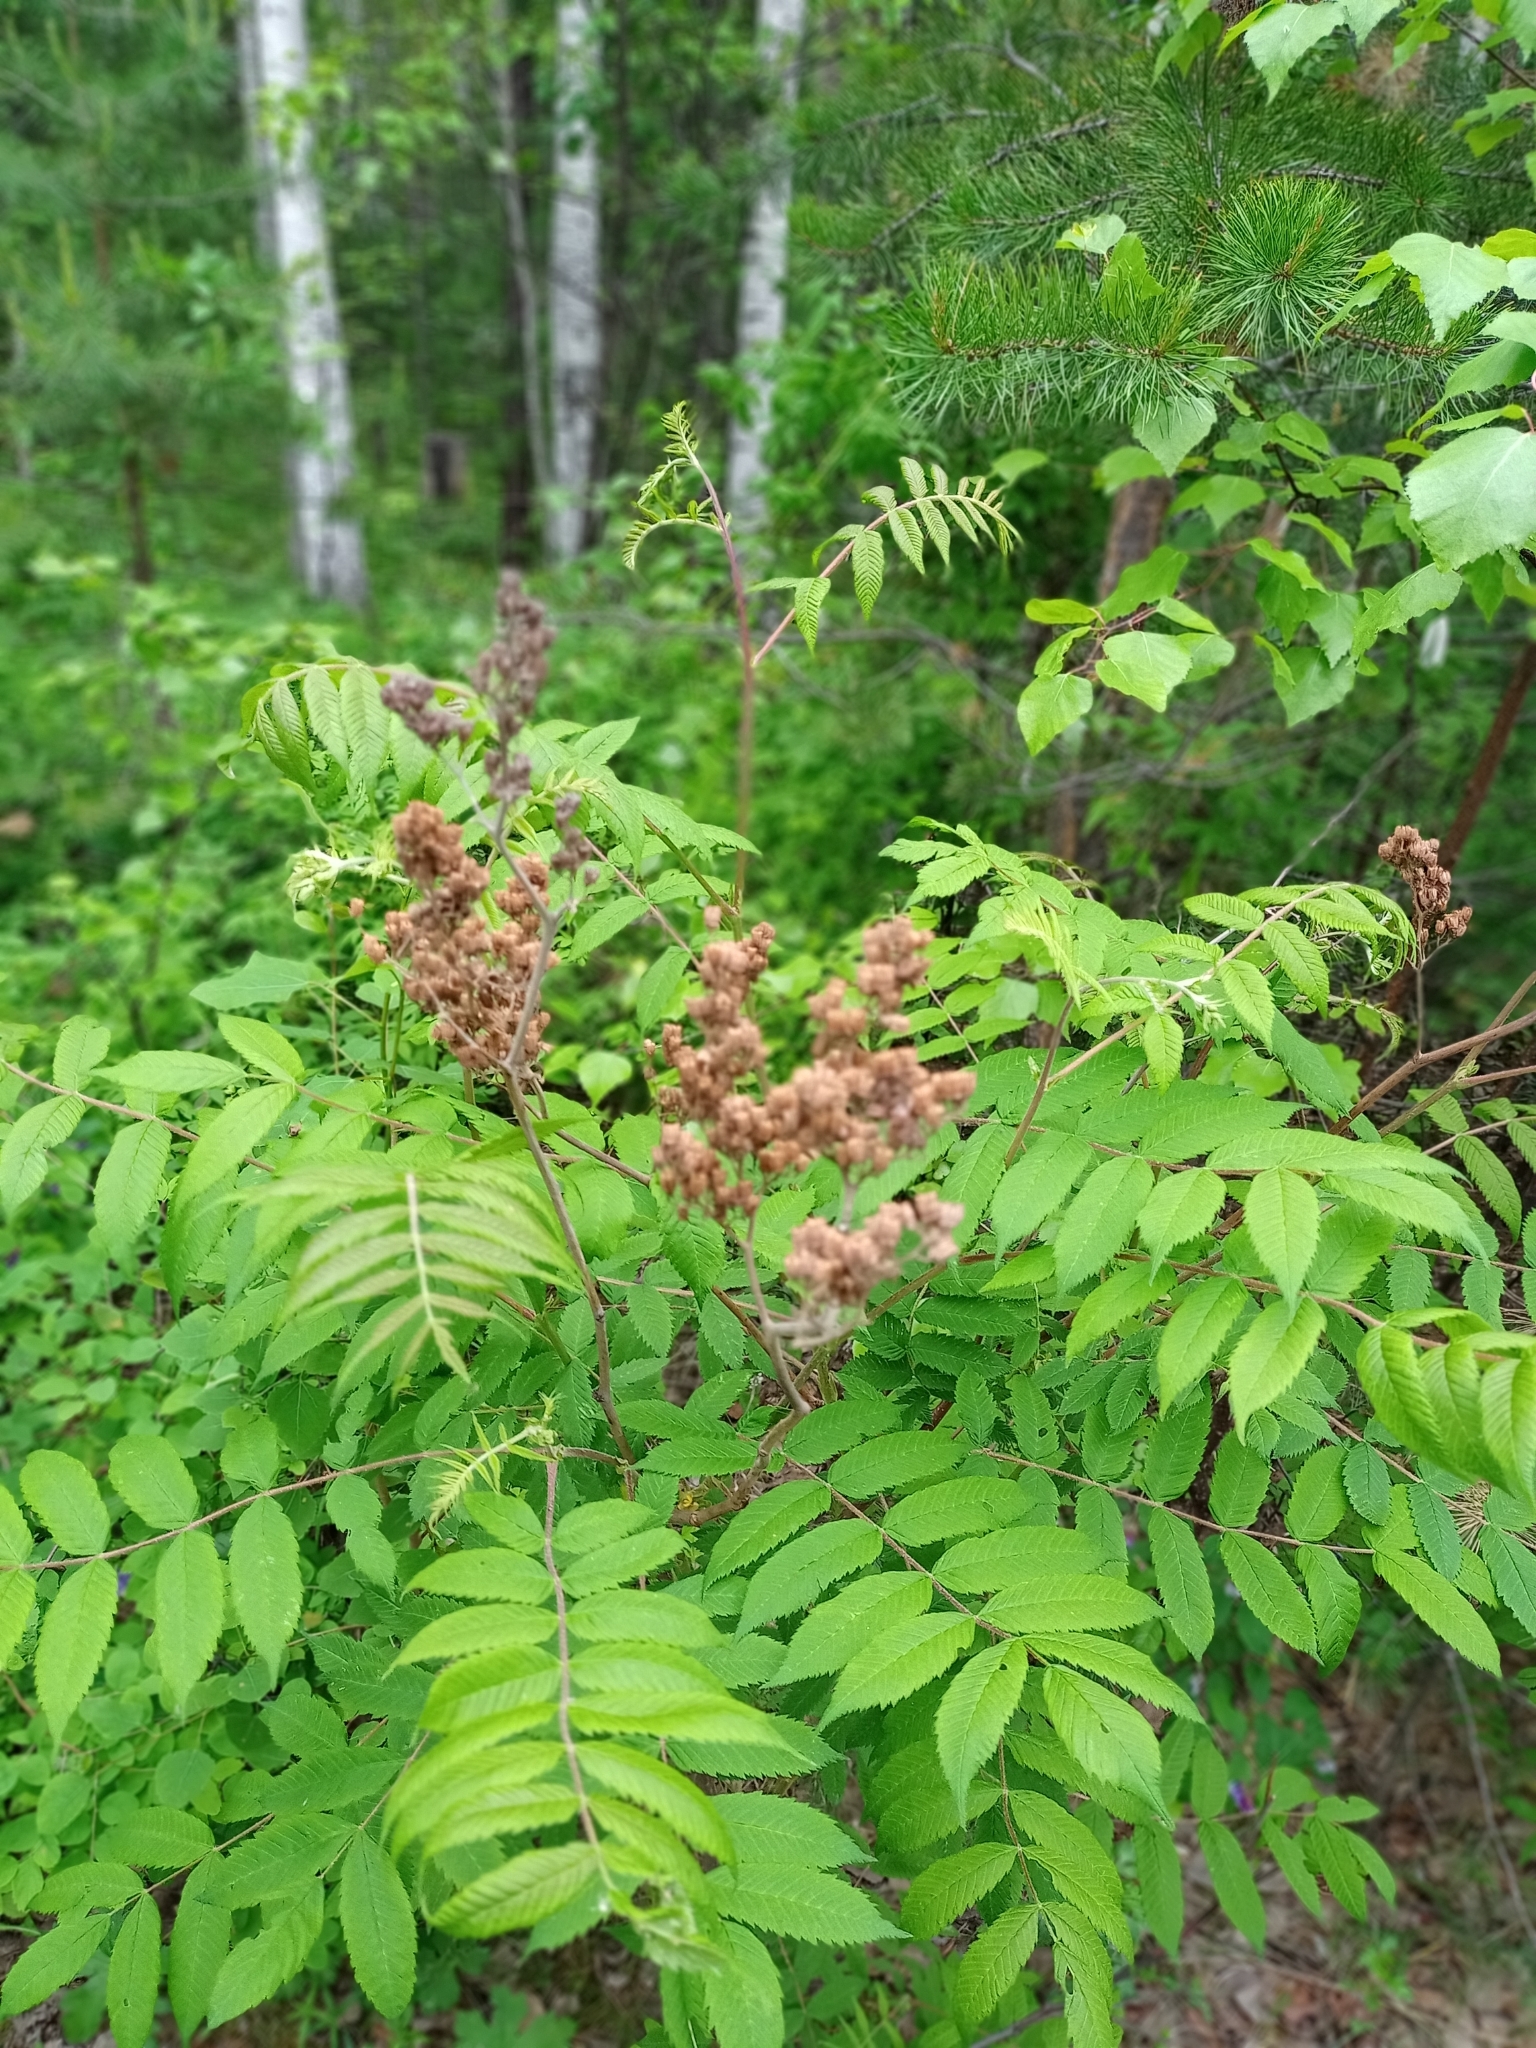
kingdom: Plantae
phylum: Tracheophyta
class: Magnoliopsida
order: Rosales
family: Rosaceae
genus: Sorbaria
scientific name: Sorbaria sorbifolia
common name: False spiraea
